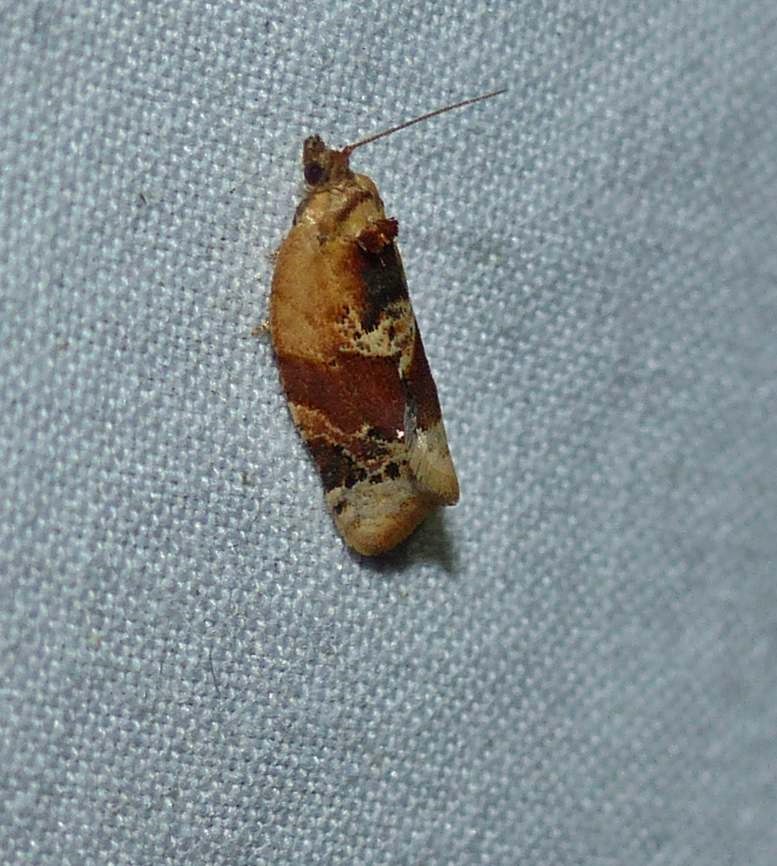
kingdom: Animalia
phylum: Arthropoda
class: Insecta
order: Lepidoptera
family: Tortricidae
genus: Argyrotaenia
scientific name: Argyrotaenia velutinana
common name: Red-banded leafroller moth
